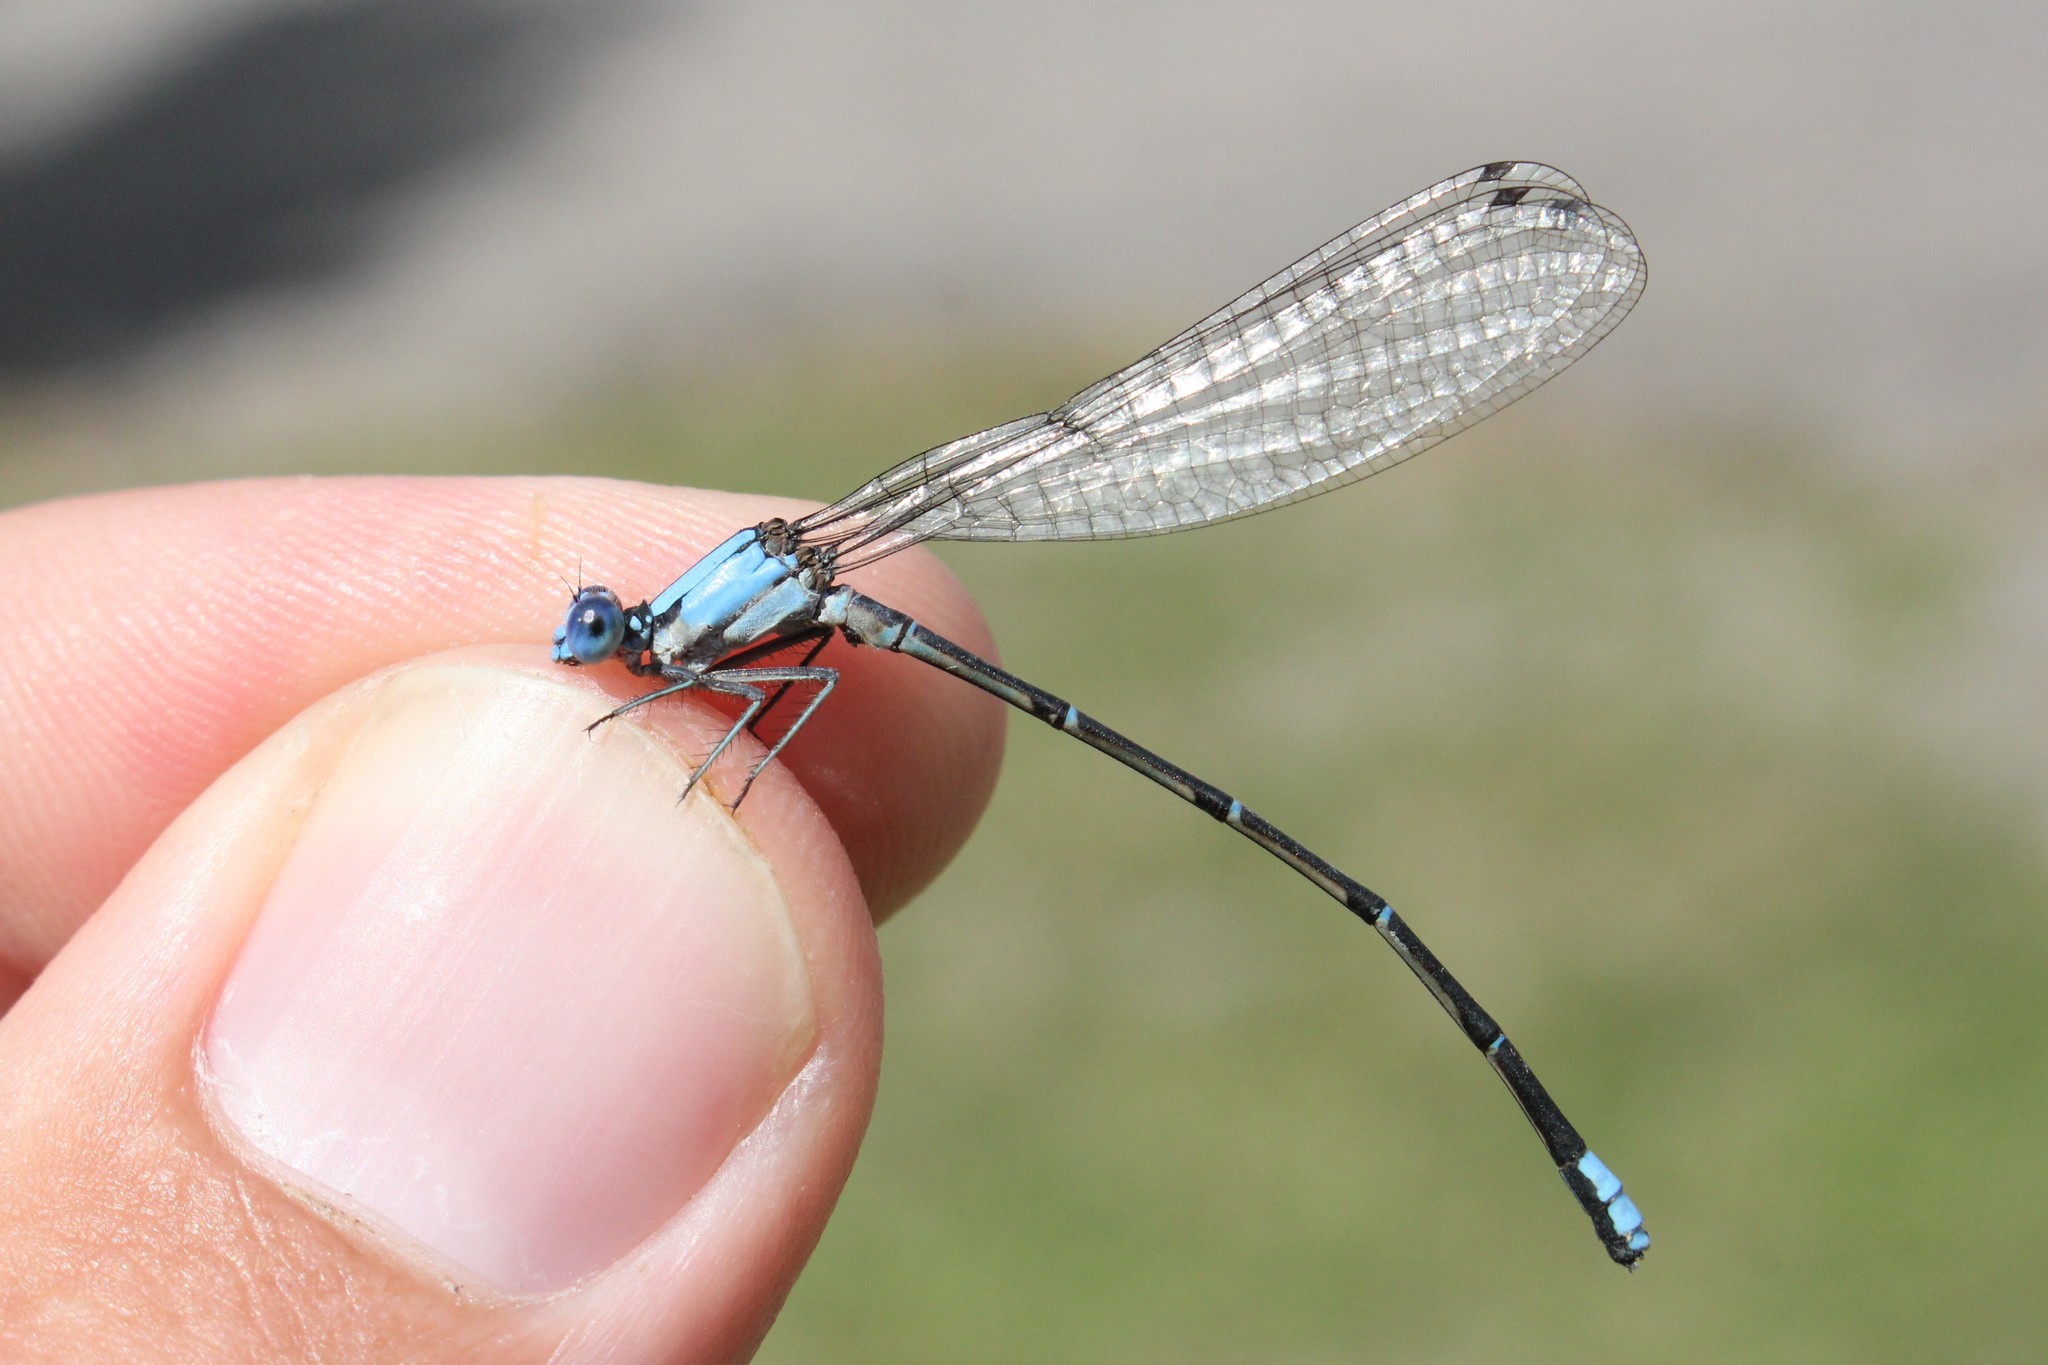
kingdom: Animalia
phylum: Arthropoda
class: Insecta
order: Odonata
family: Coenagrionidae
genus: Argia
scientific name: Argia apicalis
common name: Blue-fronted dancer
